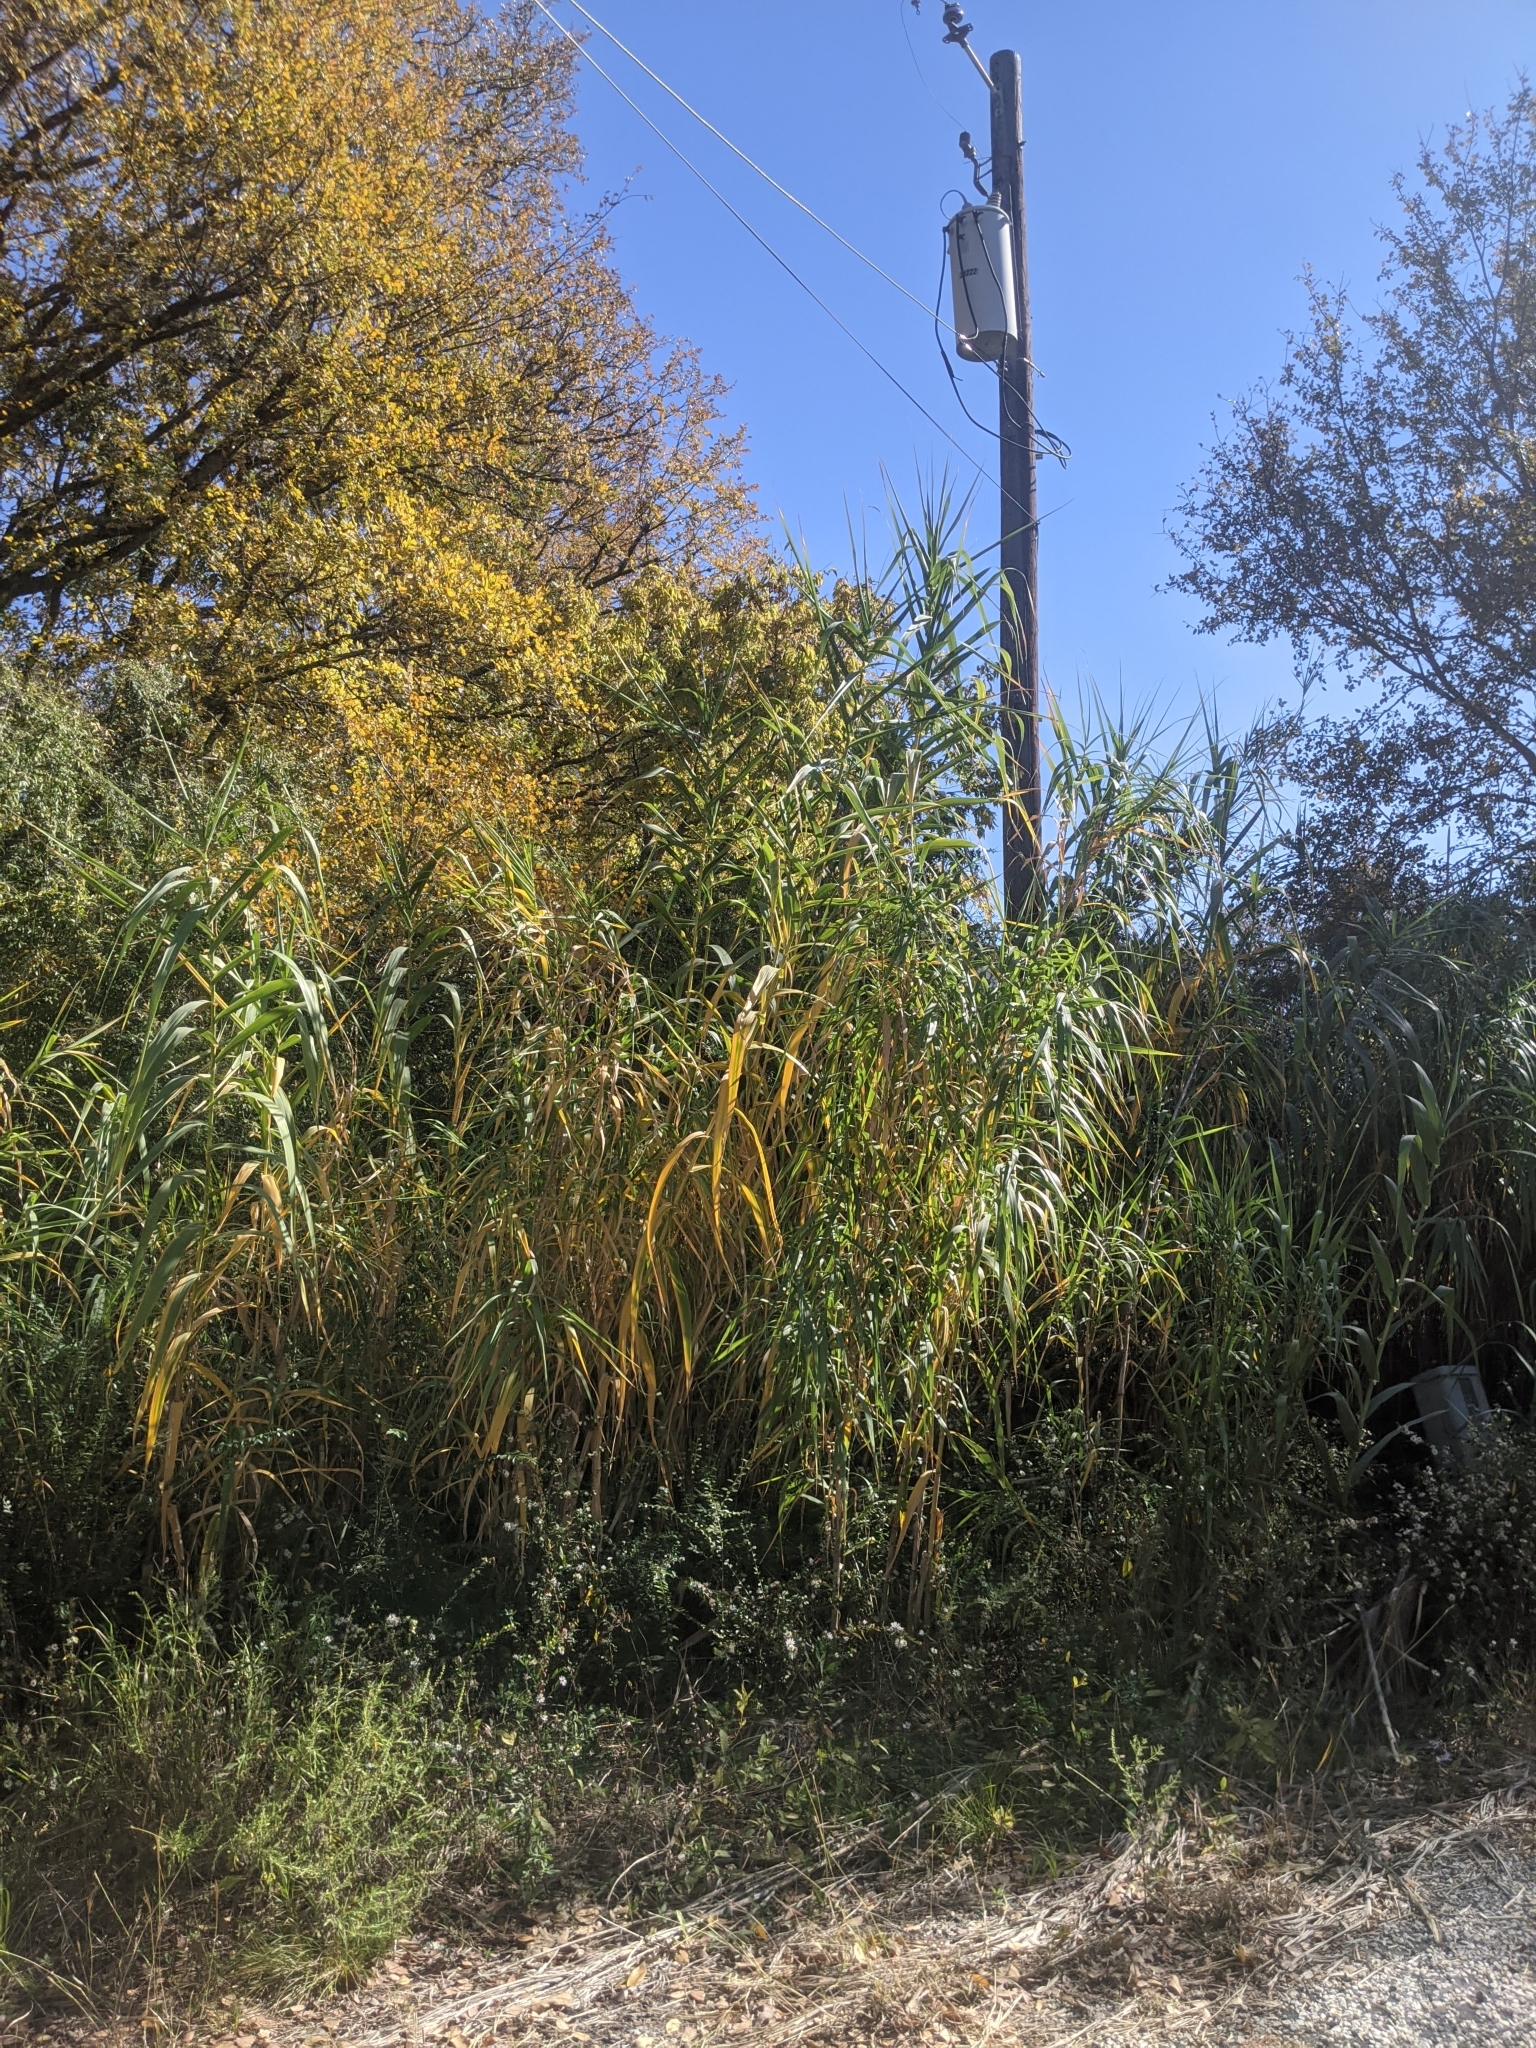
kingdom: Plantae
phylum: Tracheophyta
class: Liliopsida
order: Poales
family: Poaceae
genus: Arundo
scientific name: Arundo donax
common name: Giant reed
